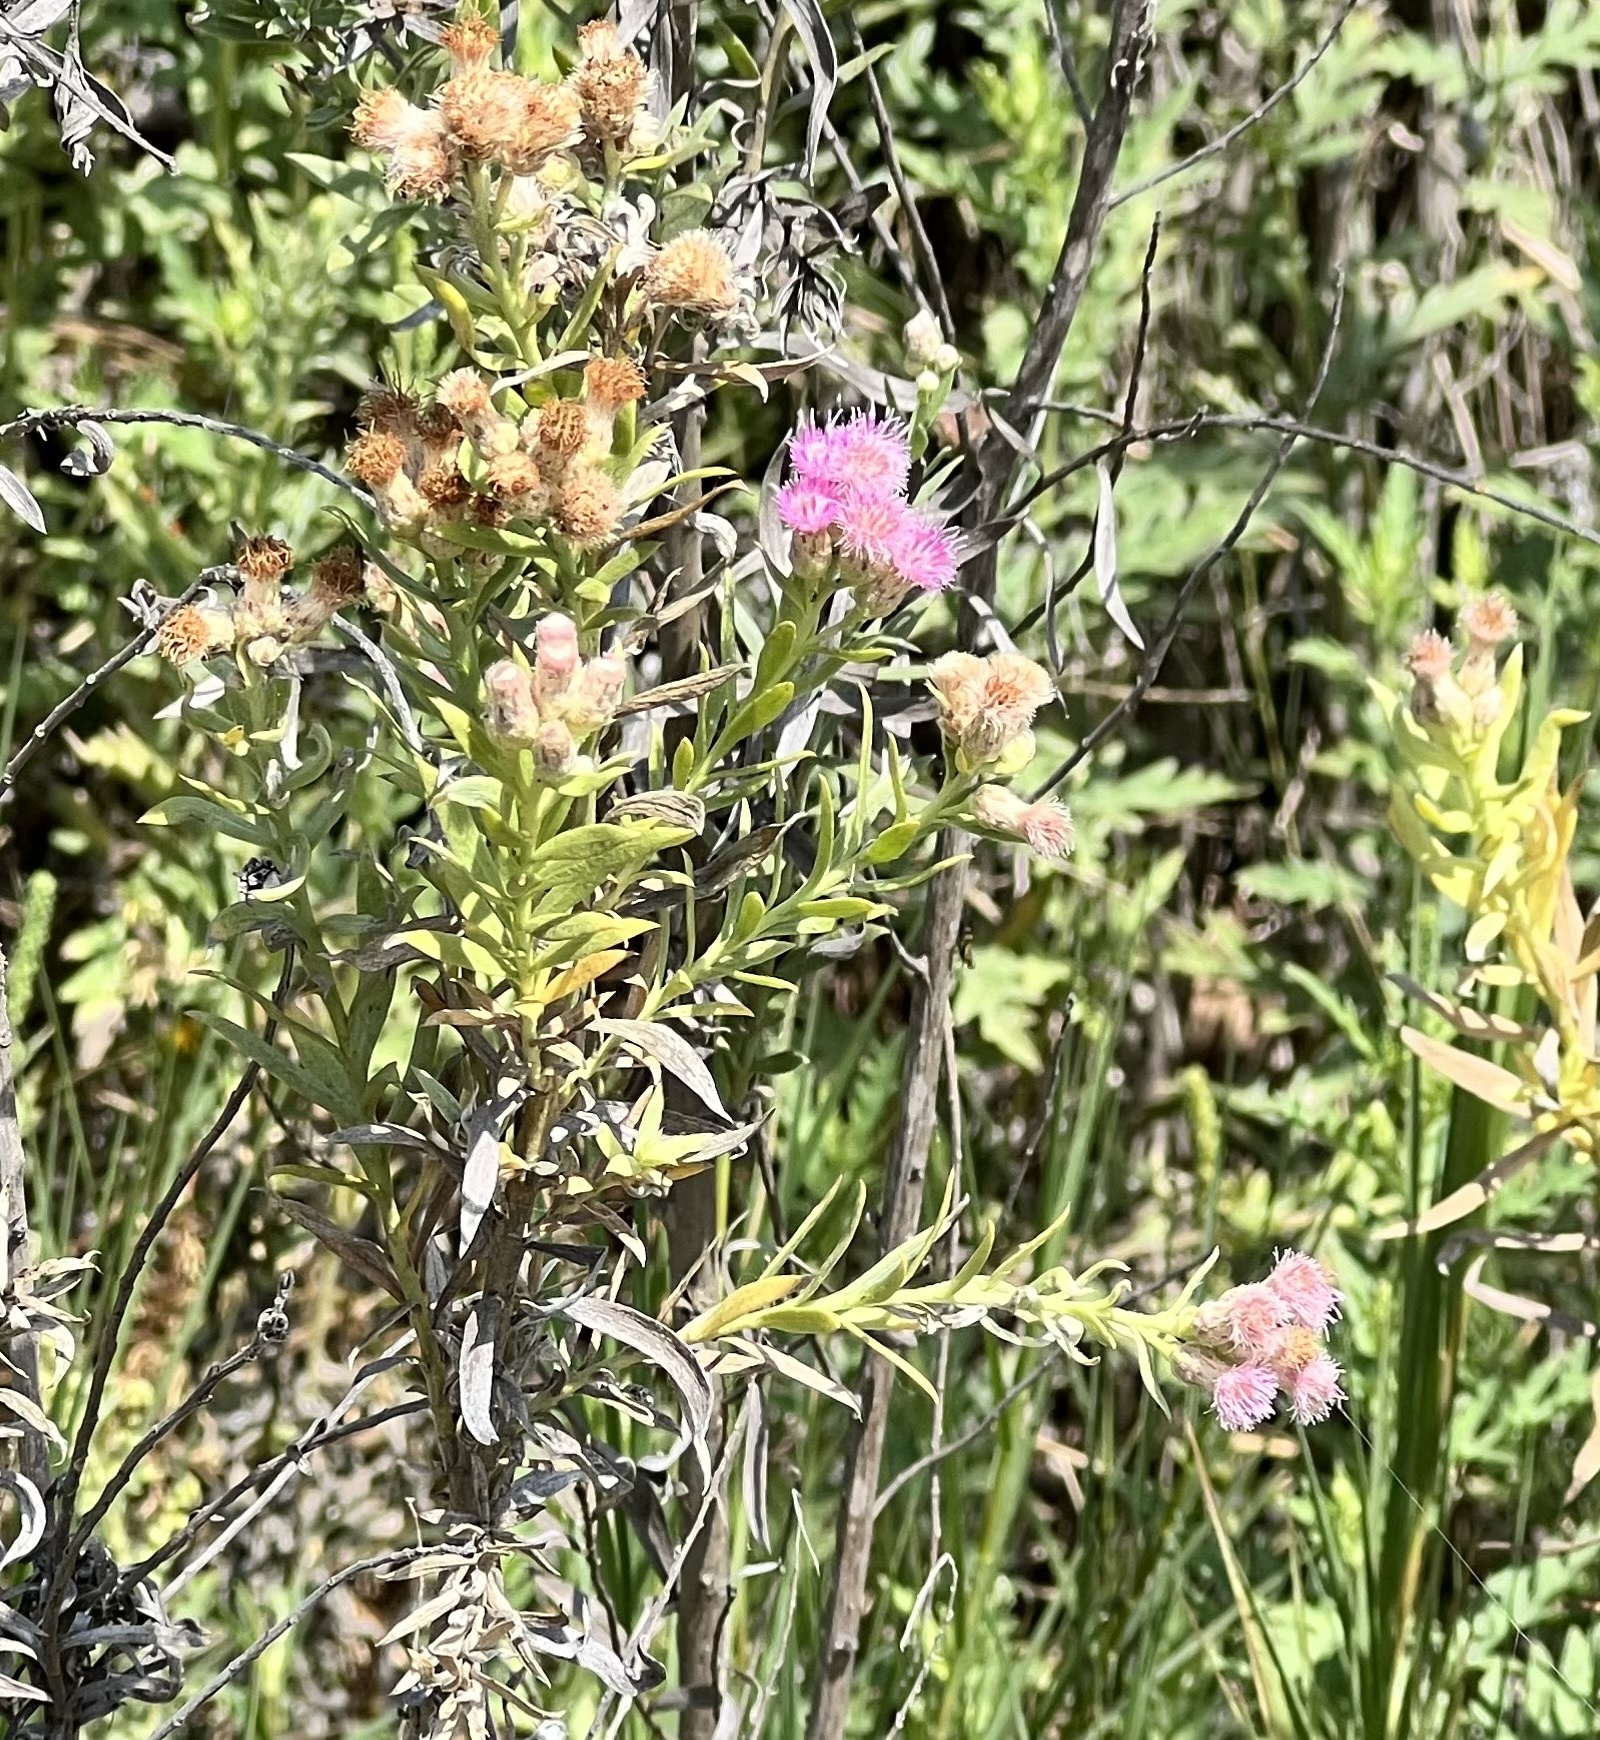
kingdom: Plantae
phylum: Tracheophyta
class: Magnoliopsida
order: Asterales
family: Asteraceae
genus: Pluchea
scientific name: Pluchea sericea
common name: Arrow-weed
